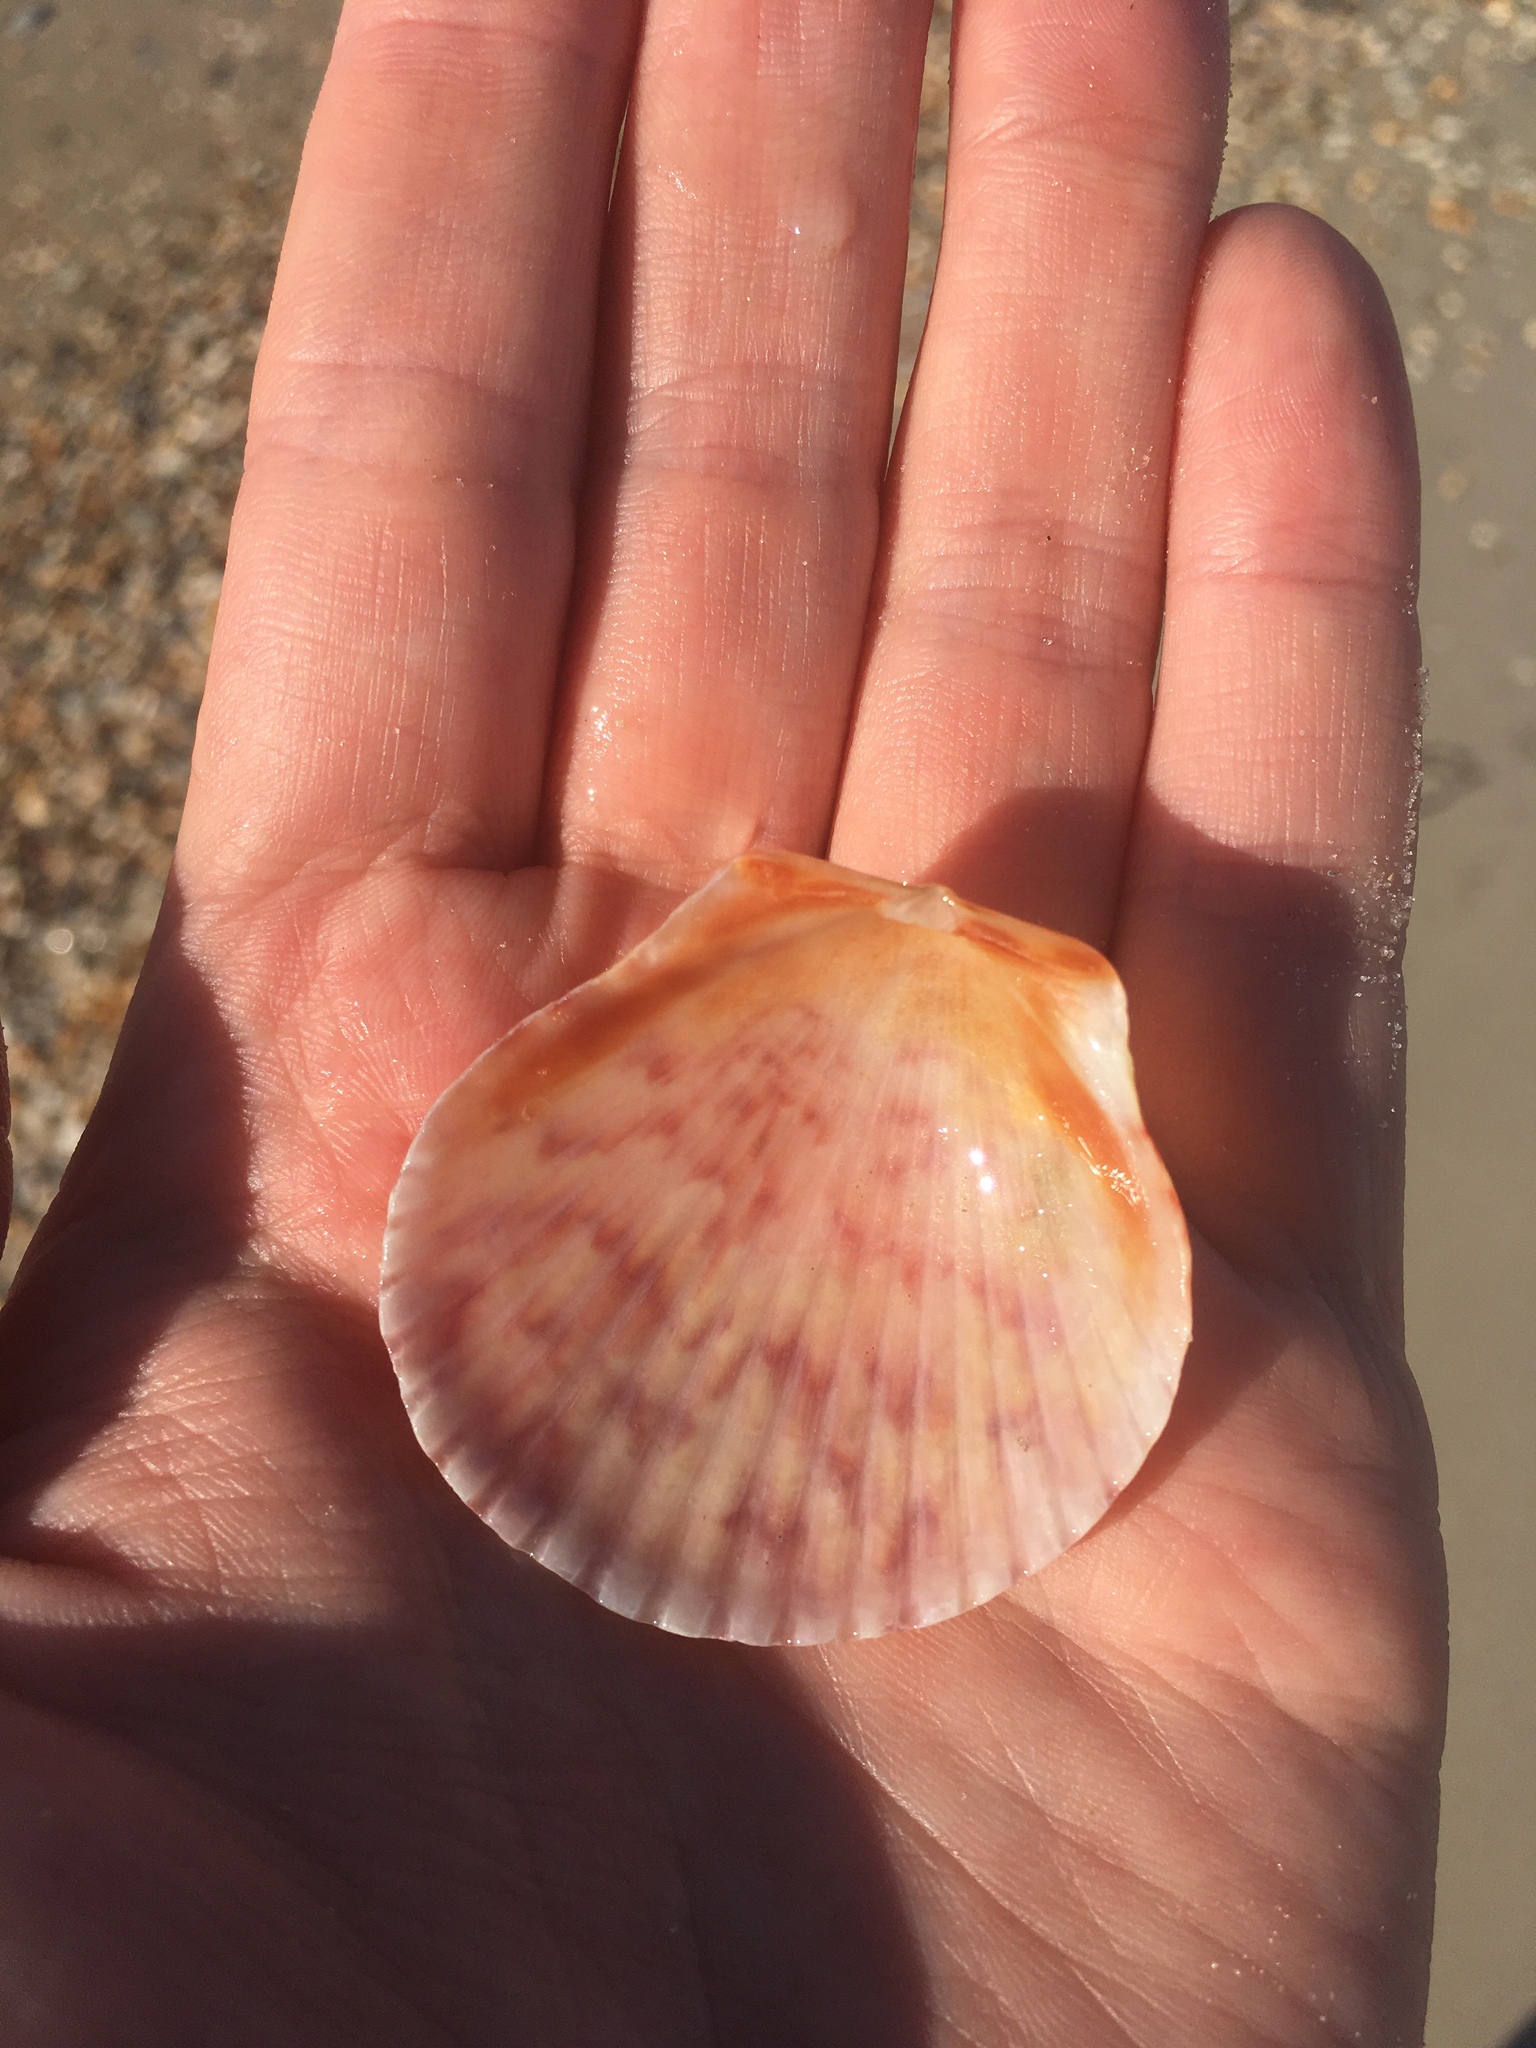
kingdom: Animalia
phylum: Mollusca
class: Bivalvia
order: Pectinida
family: Pectinidae
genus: Argopecten
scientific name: Argopecten gibbus
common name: Atlantic calico scallop
